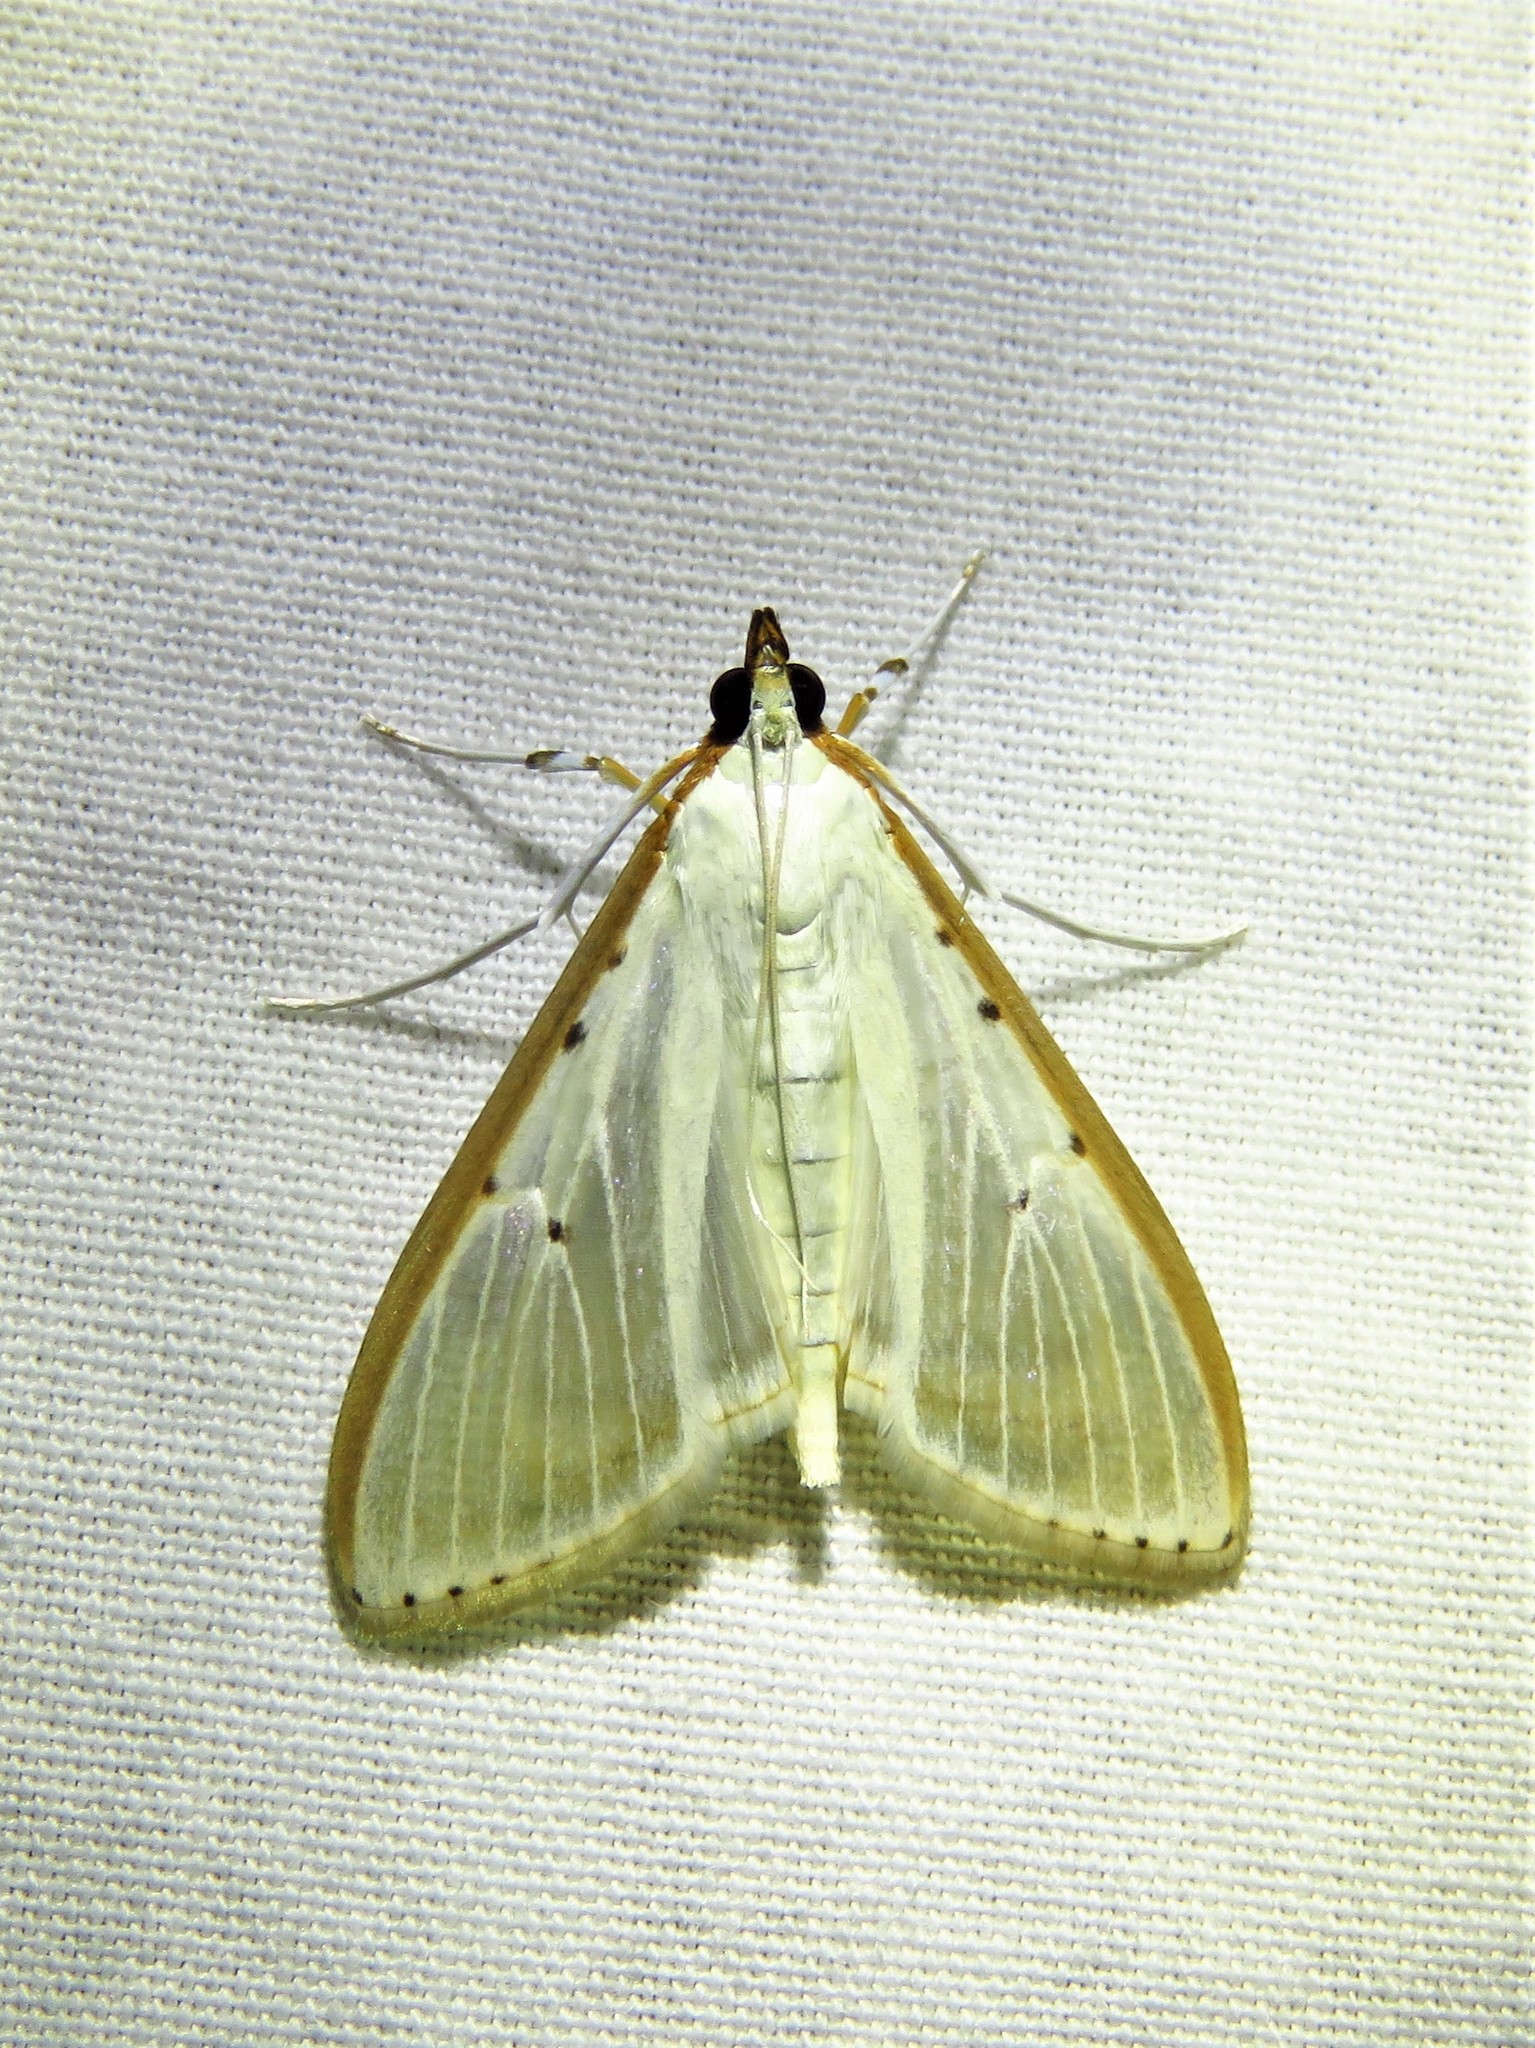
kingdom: Animalia
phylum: Arthropoda
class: Insecta
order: Lepidoptera
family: Crambidae
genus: Palpita
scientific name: Palpita quadristigmalis
